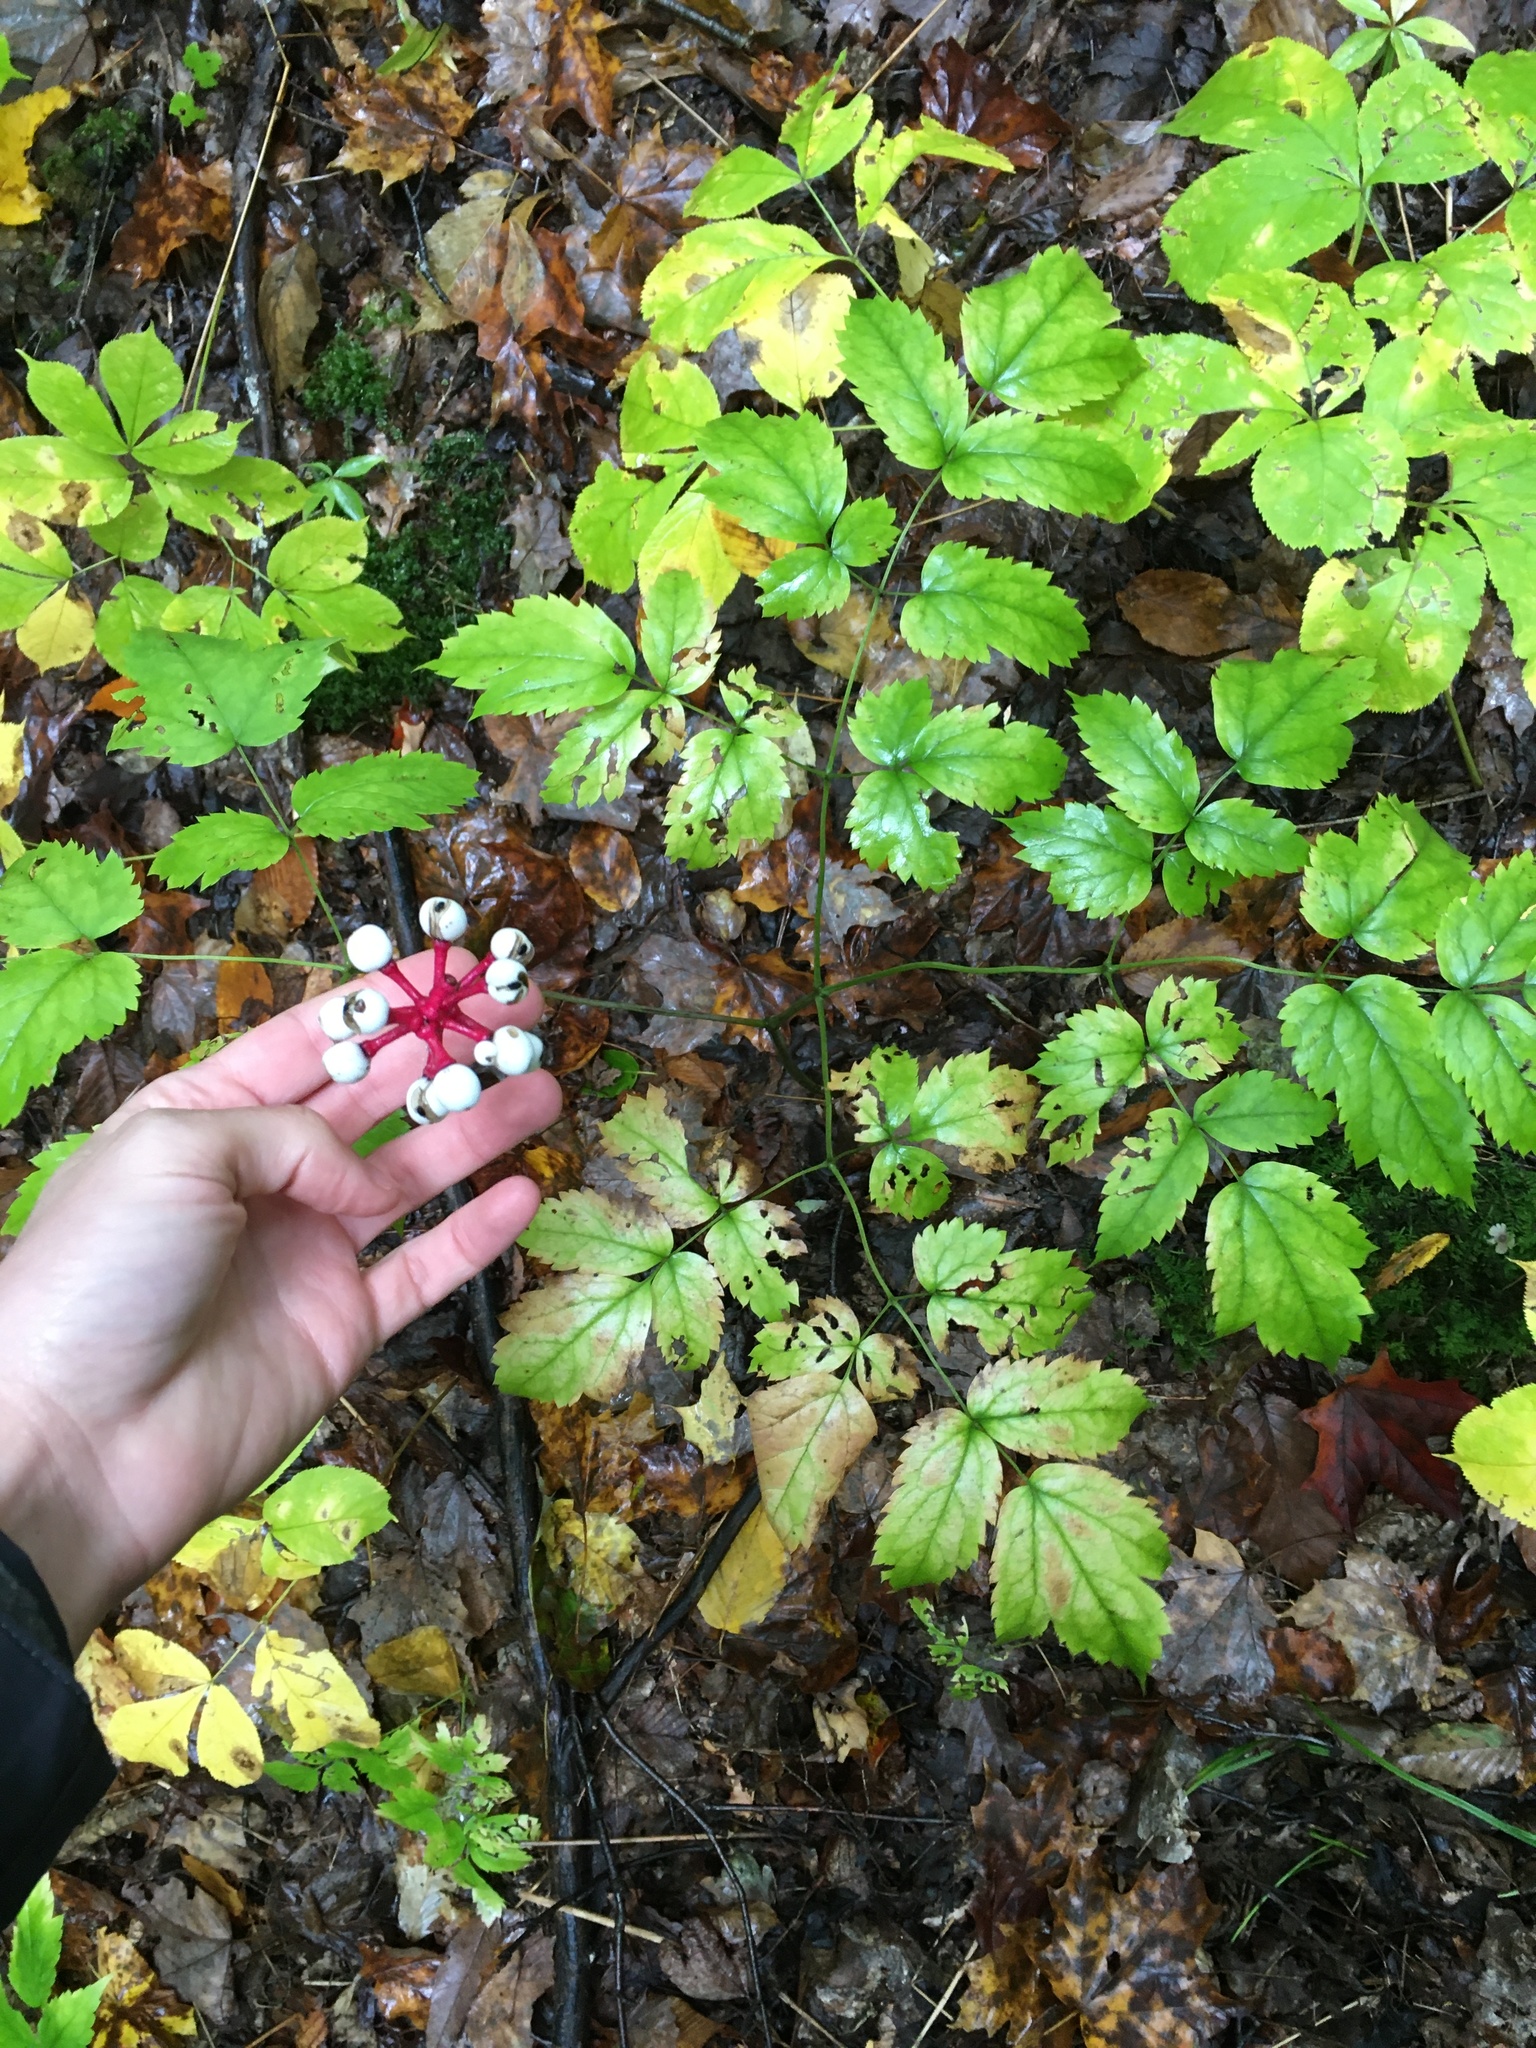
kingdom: Plantae
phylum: Tracheophyta
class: Magnoliopsida
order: Ranunculales
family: Ranunculaceae
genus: Actaea
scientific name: Actaea pachypoda
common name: Doll's-eyes
